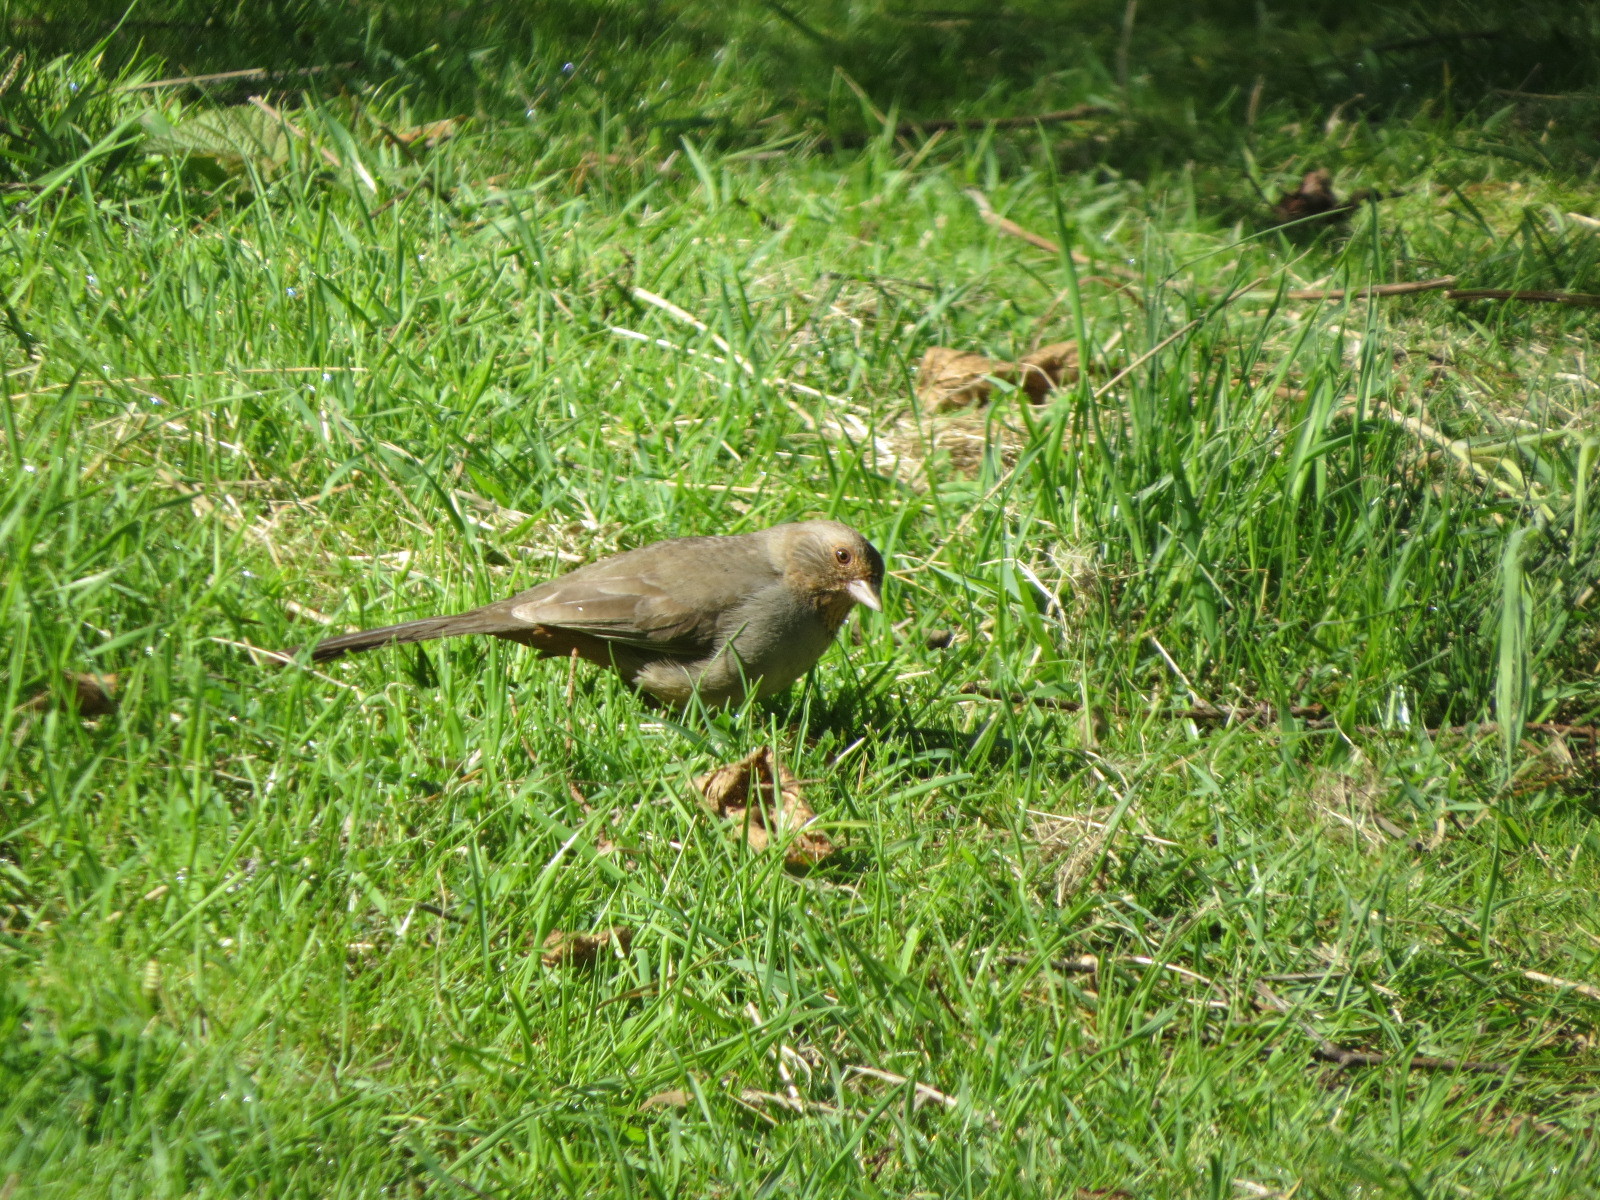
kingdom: Animalia
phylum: Chordata
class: Aves
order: Passeriformes
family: Passerellidae
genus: Melozone
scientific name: Melozone crissalis
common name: California towhee
